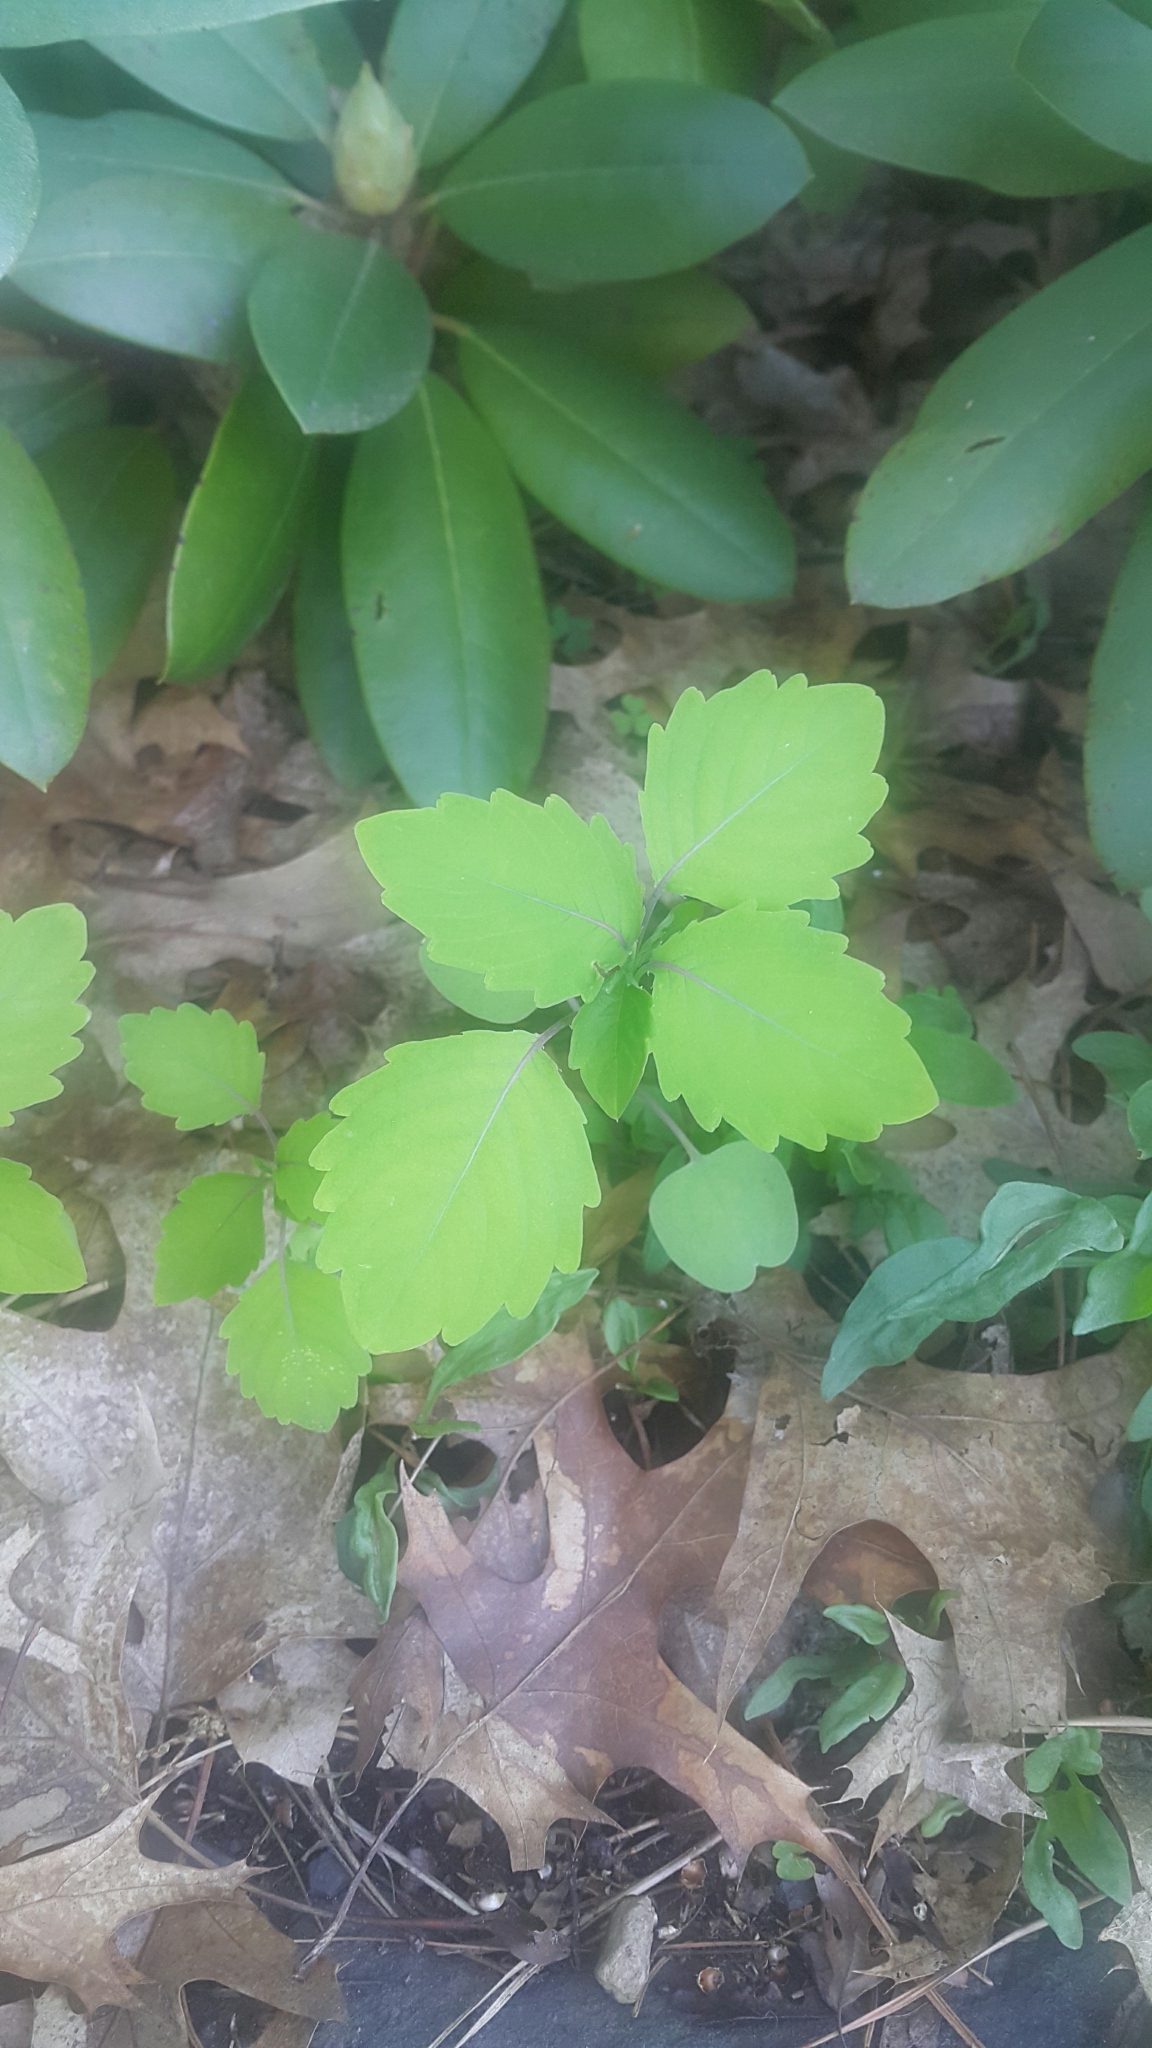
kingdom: Plantae
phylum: Tracheophyta
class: Magnoliopsida
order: Ericales
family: Balsaminaceae
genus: Impatiens
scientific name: Impatiens capensis
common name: Orange balsam
